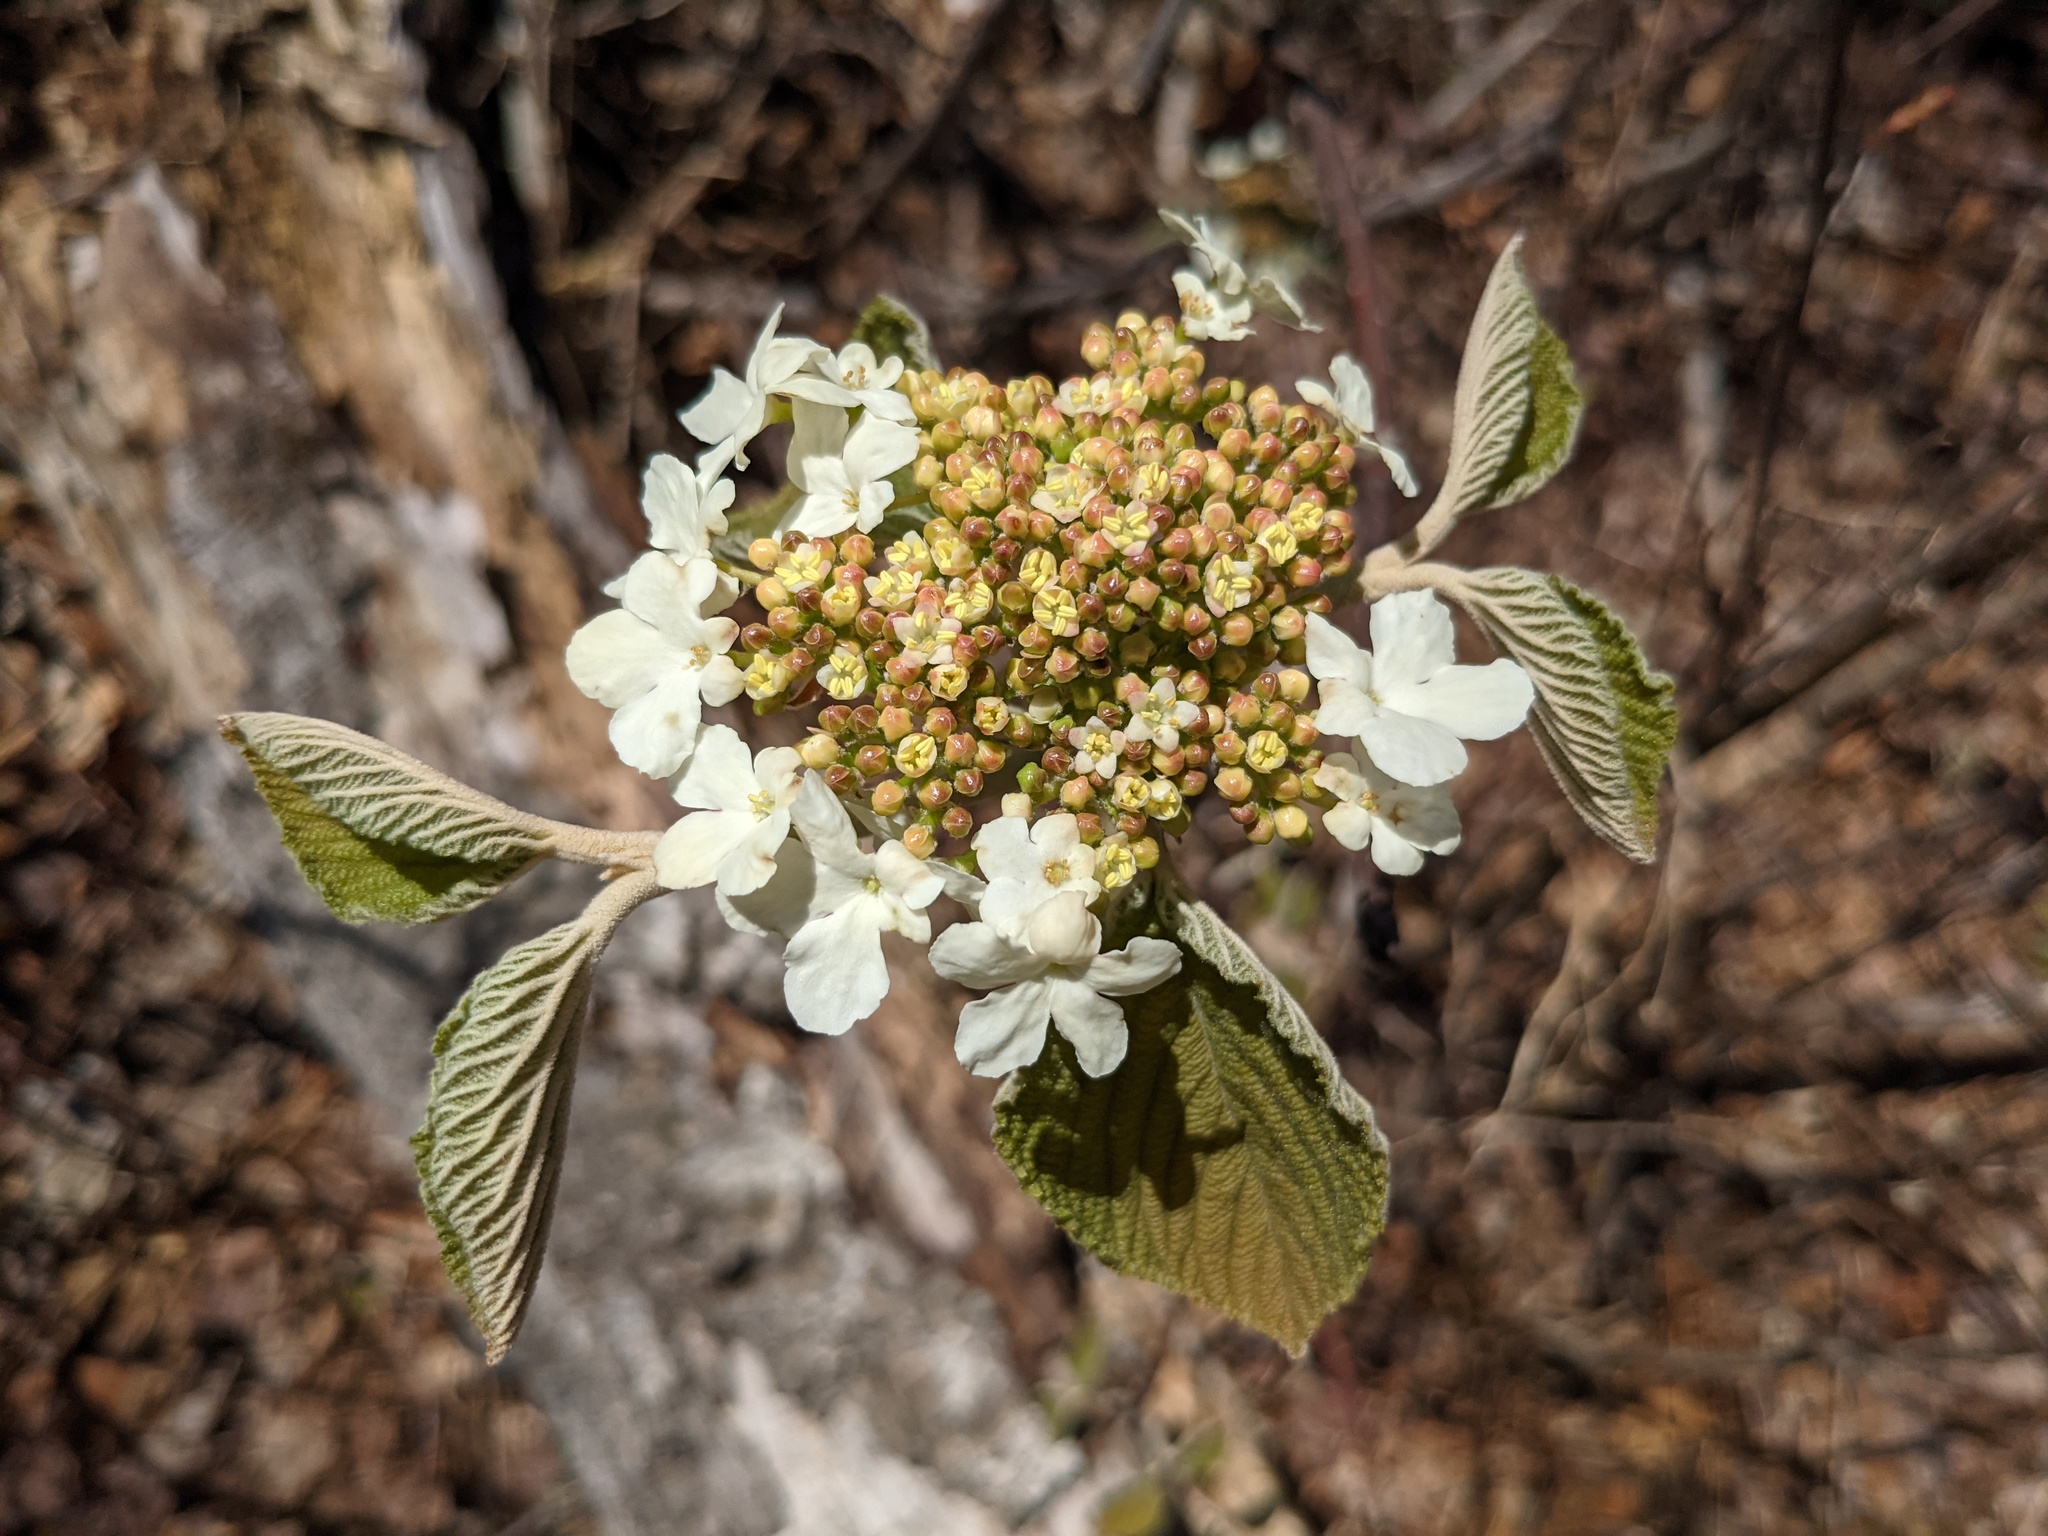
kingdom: Plantae
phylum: Tracheophyta
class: Magnoliopsida
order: Dipsacales
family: Viburnaceae
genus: Viburnum
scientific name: Viburnum lantanoides
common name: Hobblebush
